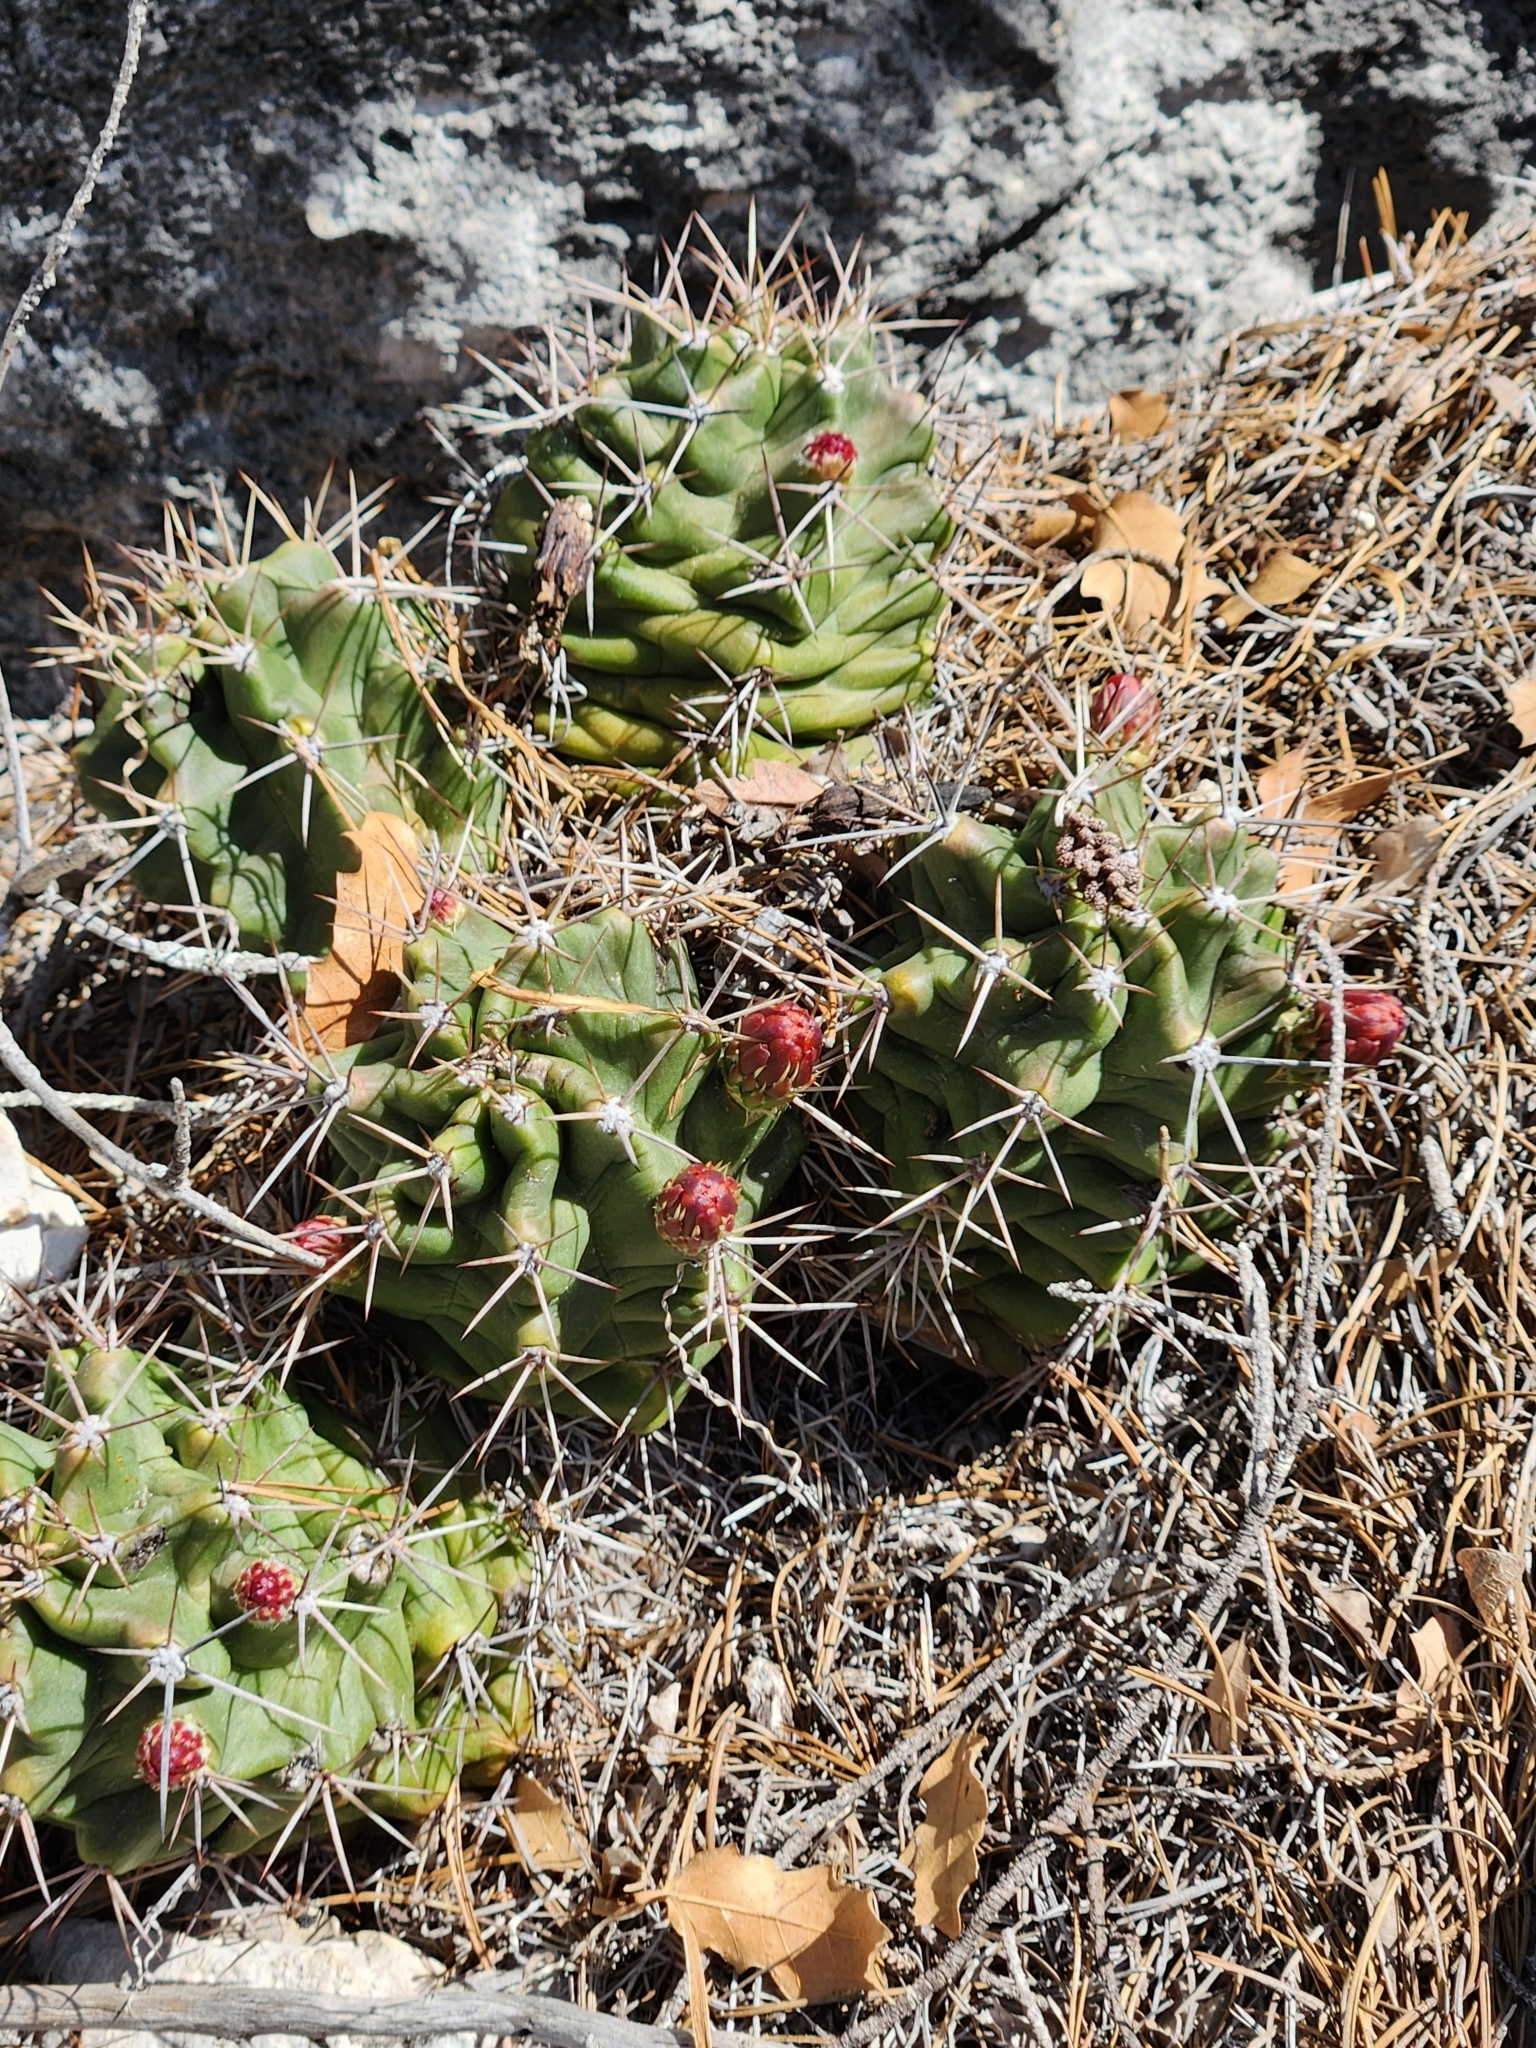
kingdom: Plantae
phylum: Tracheophyta
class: Magnoliopsida
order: Caryophyllales
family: Cactaceae
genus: Echinocereus
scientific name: Echinocereus coccineus
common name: Scarlet hedgehog cactus
